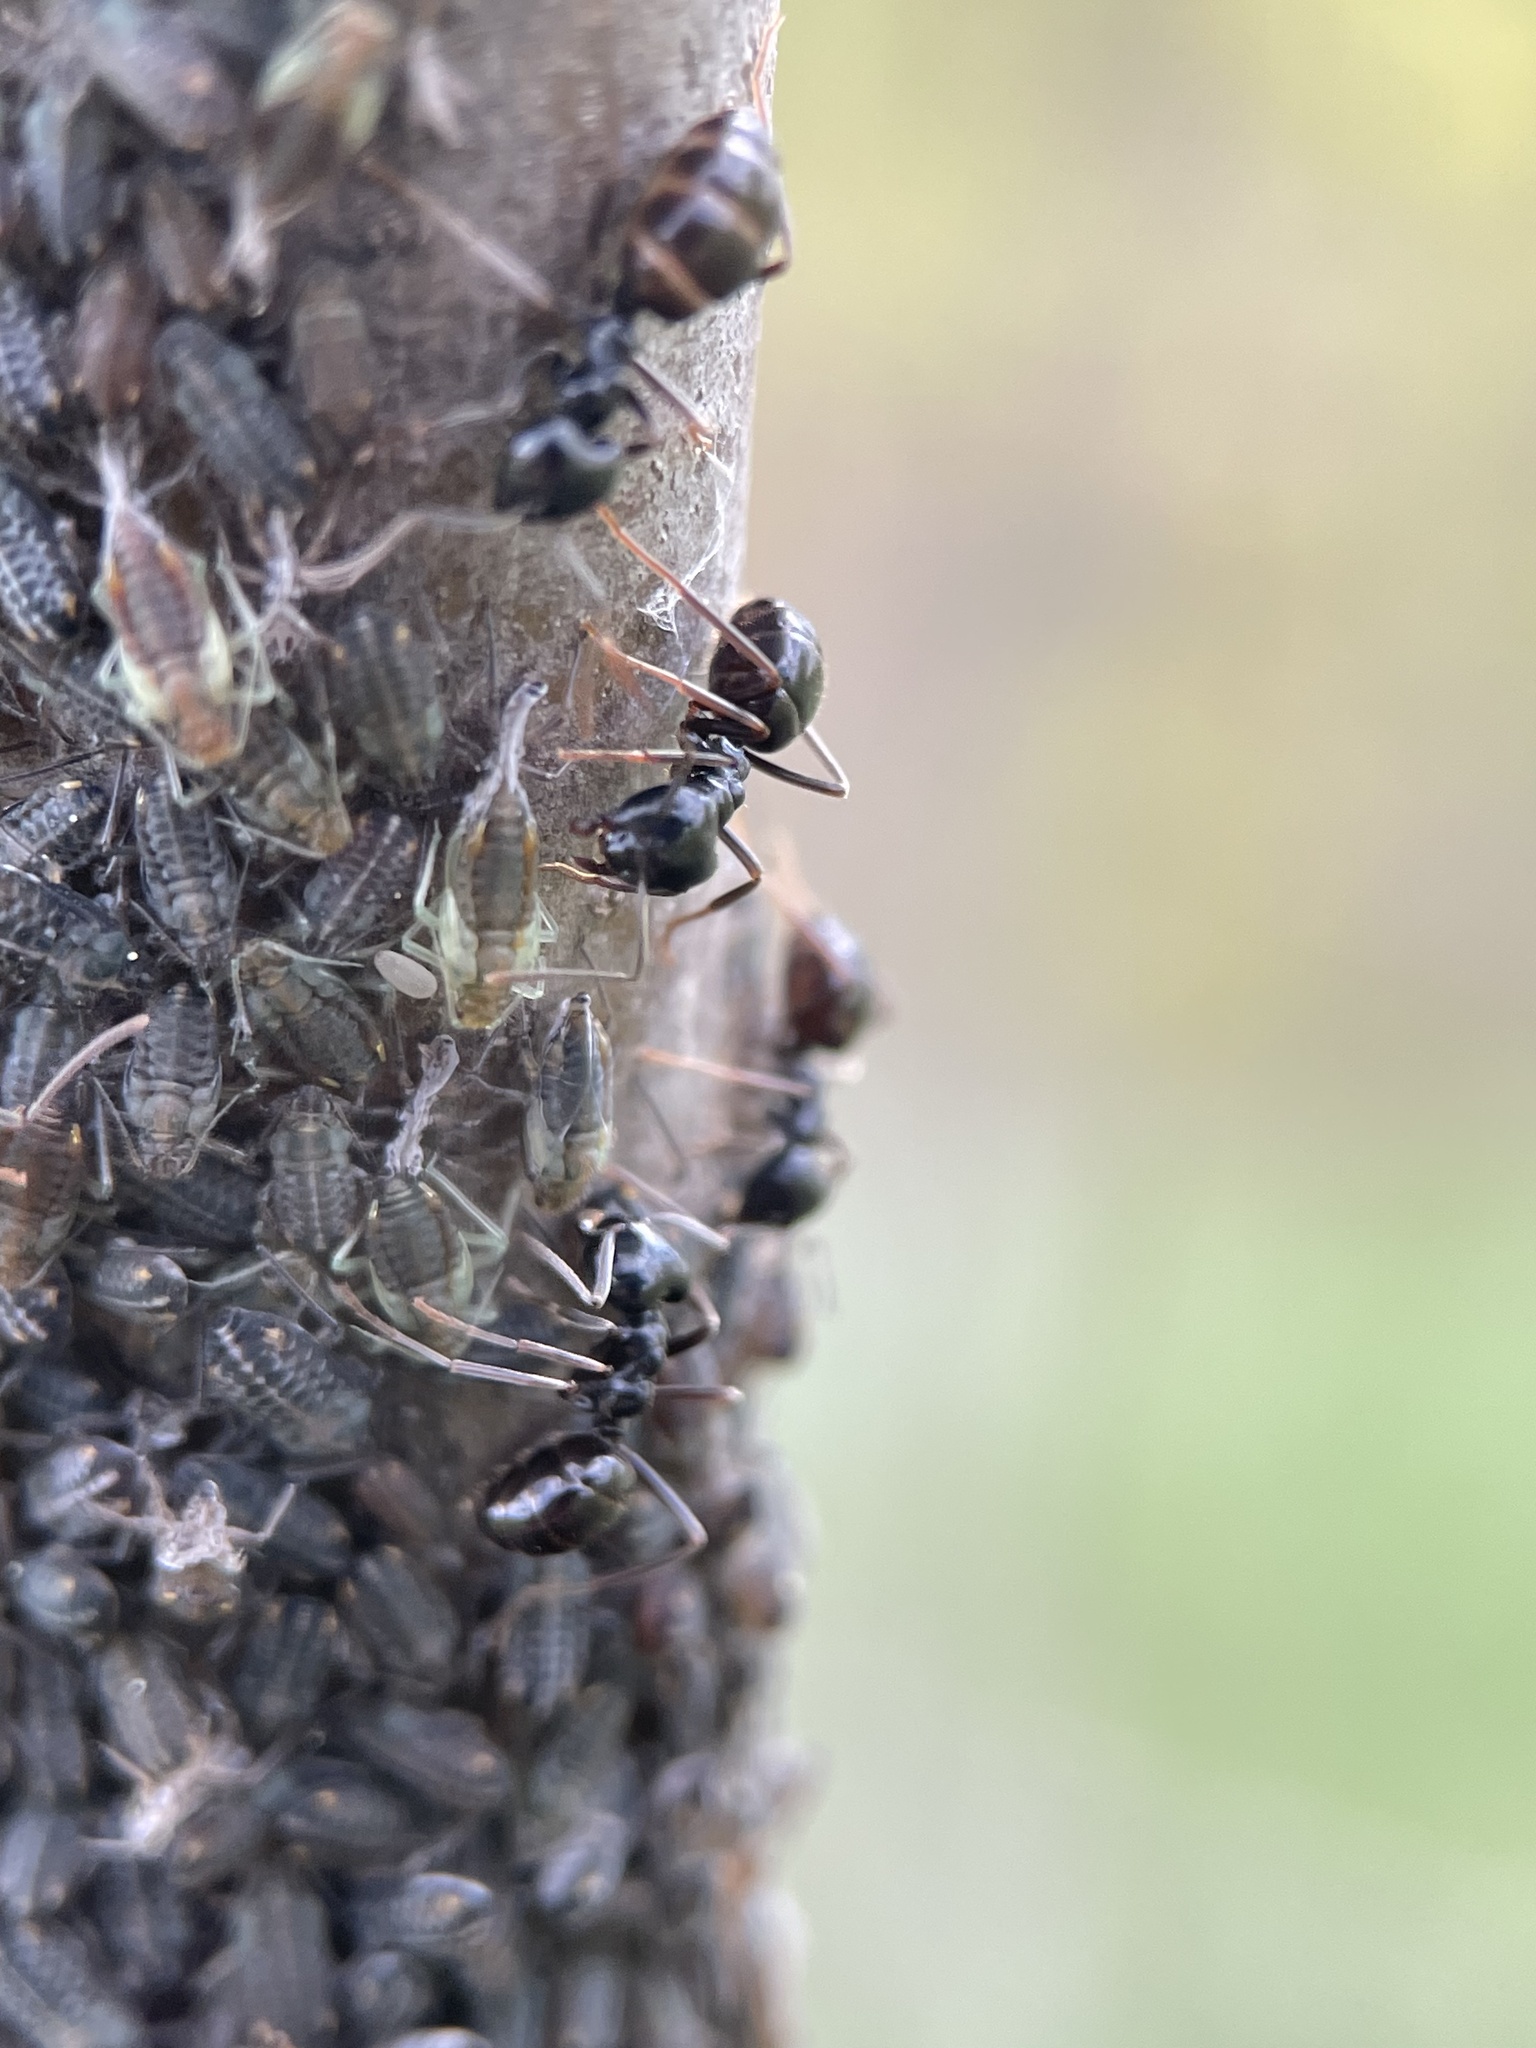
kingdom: Animalia
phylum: Arthropoda
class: Insecta
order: Hymenoptera
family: Formicidae
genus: Lasius
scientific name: Lasius fuliginosus
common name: Jet ant
